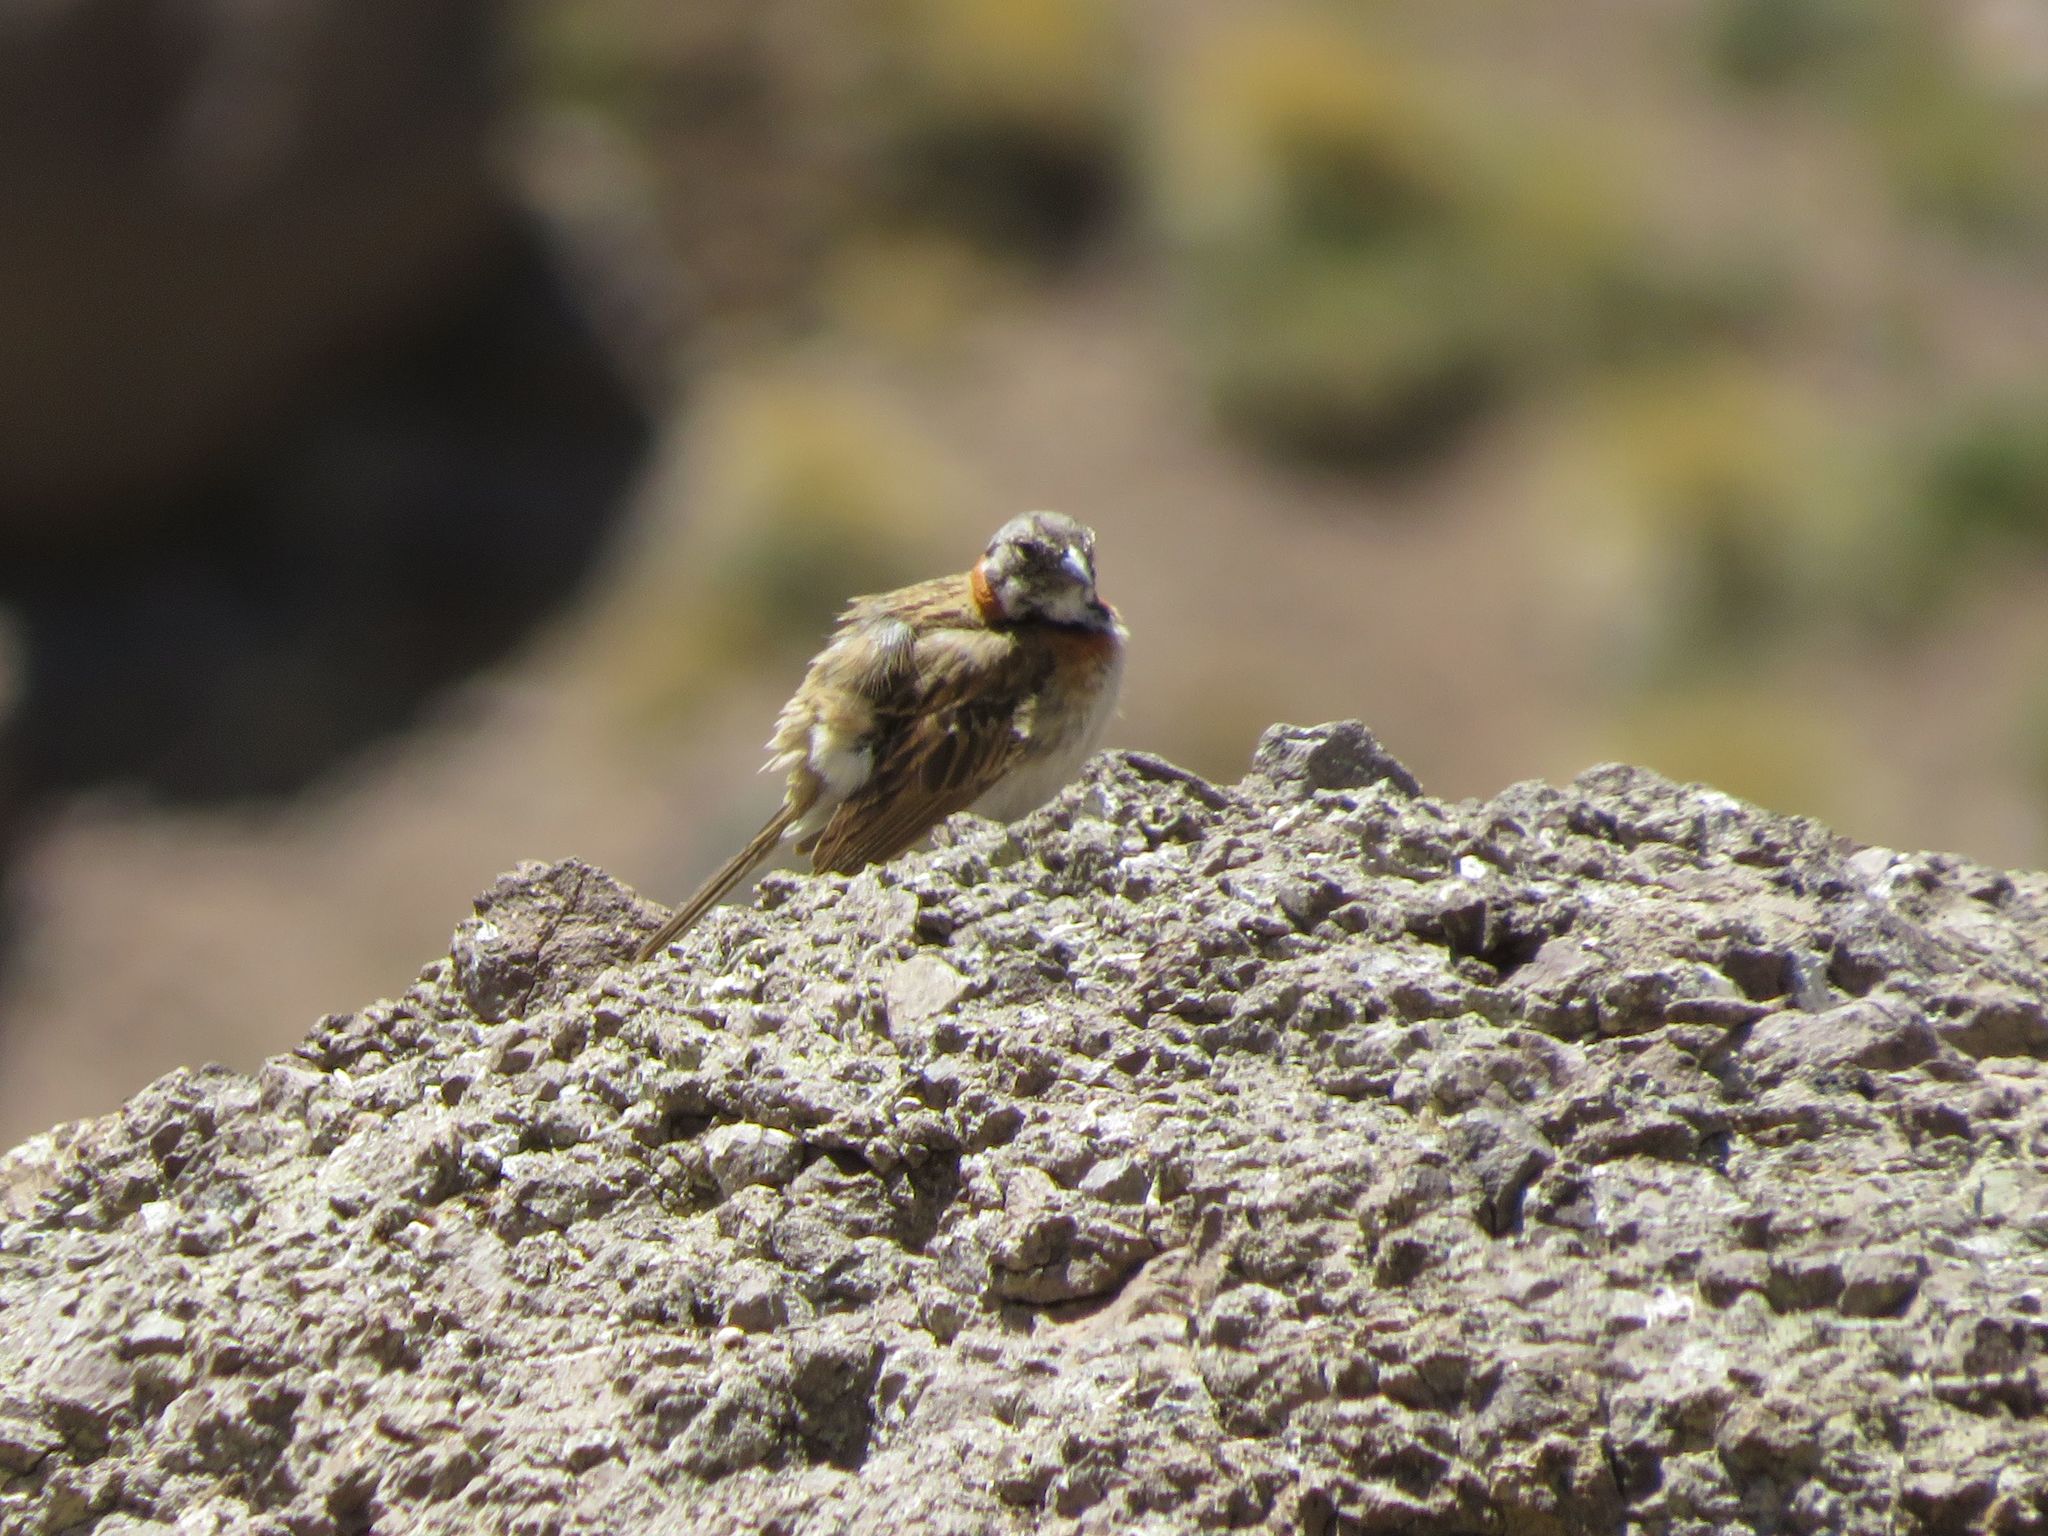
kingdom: Animalia
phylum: Chordata
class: Aves
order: Passeriformes
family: Passerellidae
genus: Zonotrichia
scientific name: Zonotrichia capensis
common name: Rufous-collared sparrow
